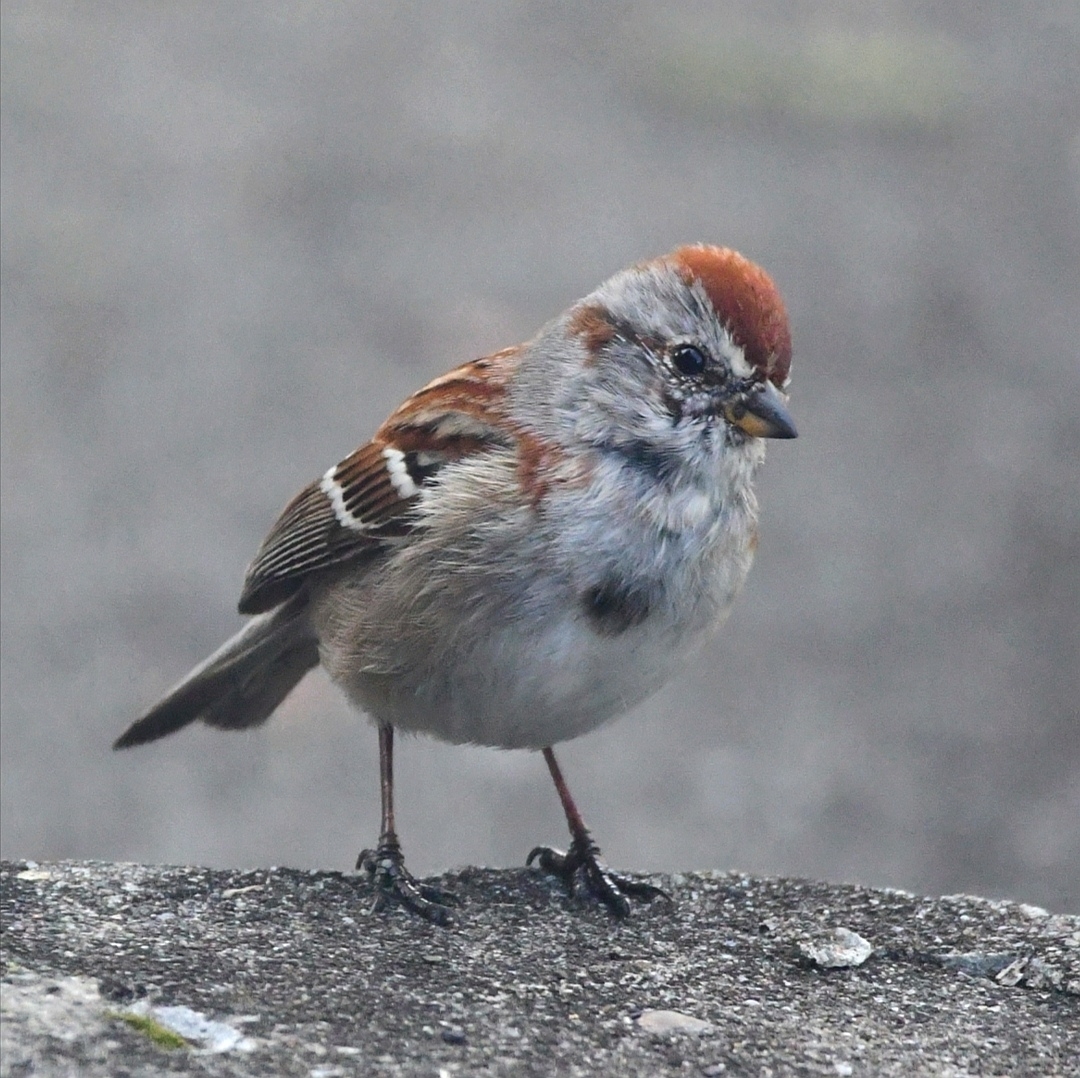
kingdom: Animalia
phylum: Chordata
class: Aves
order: Passeriformes
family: Passerellidae
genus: Spizelloides
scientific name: Spizelloides arborea
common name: American tree sparrow
